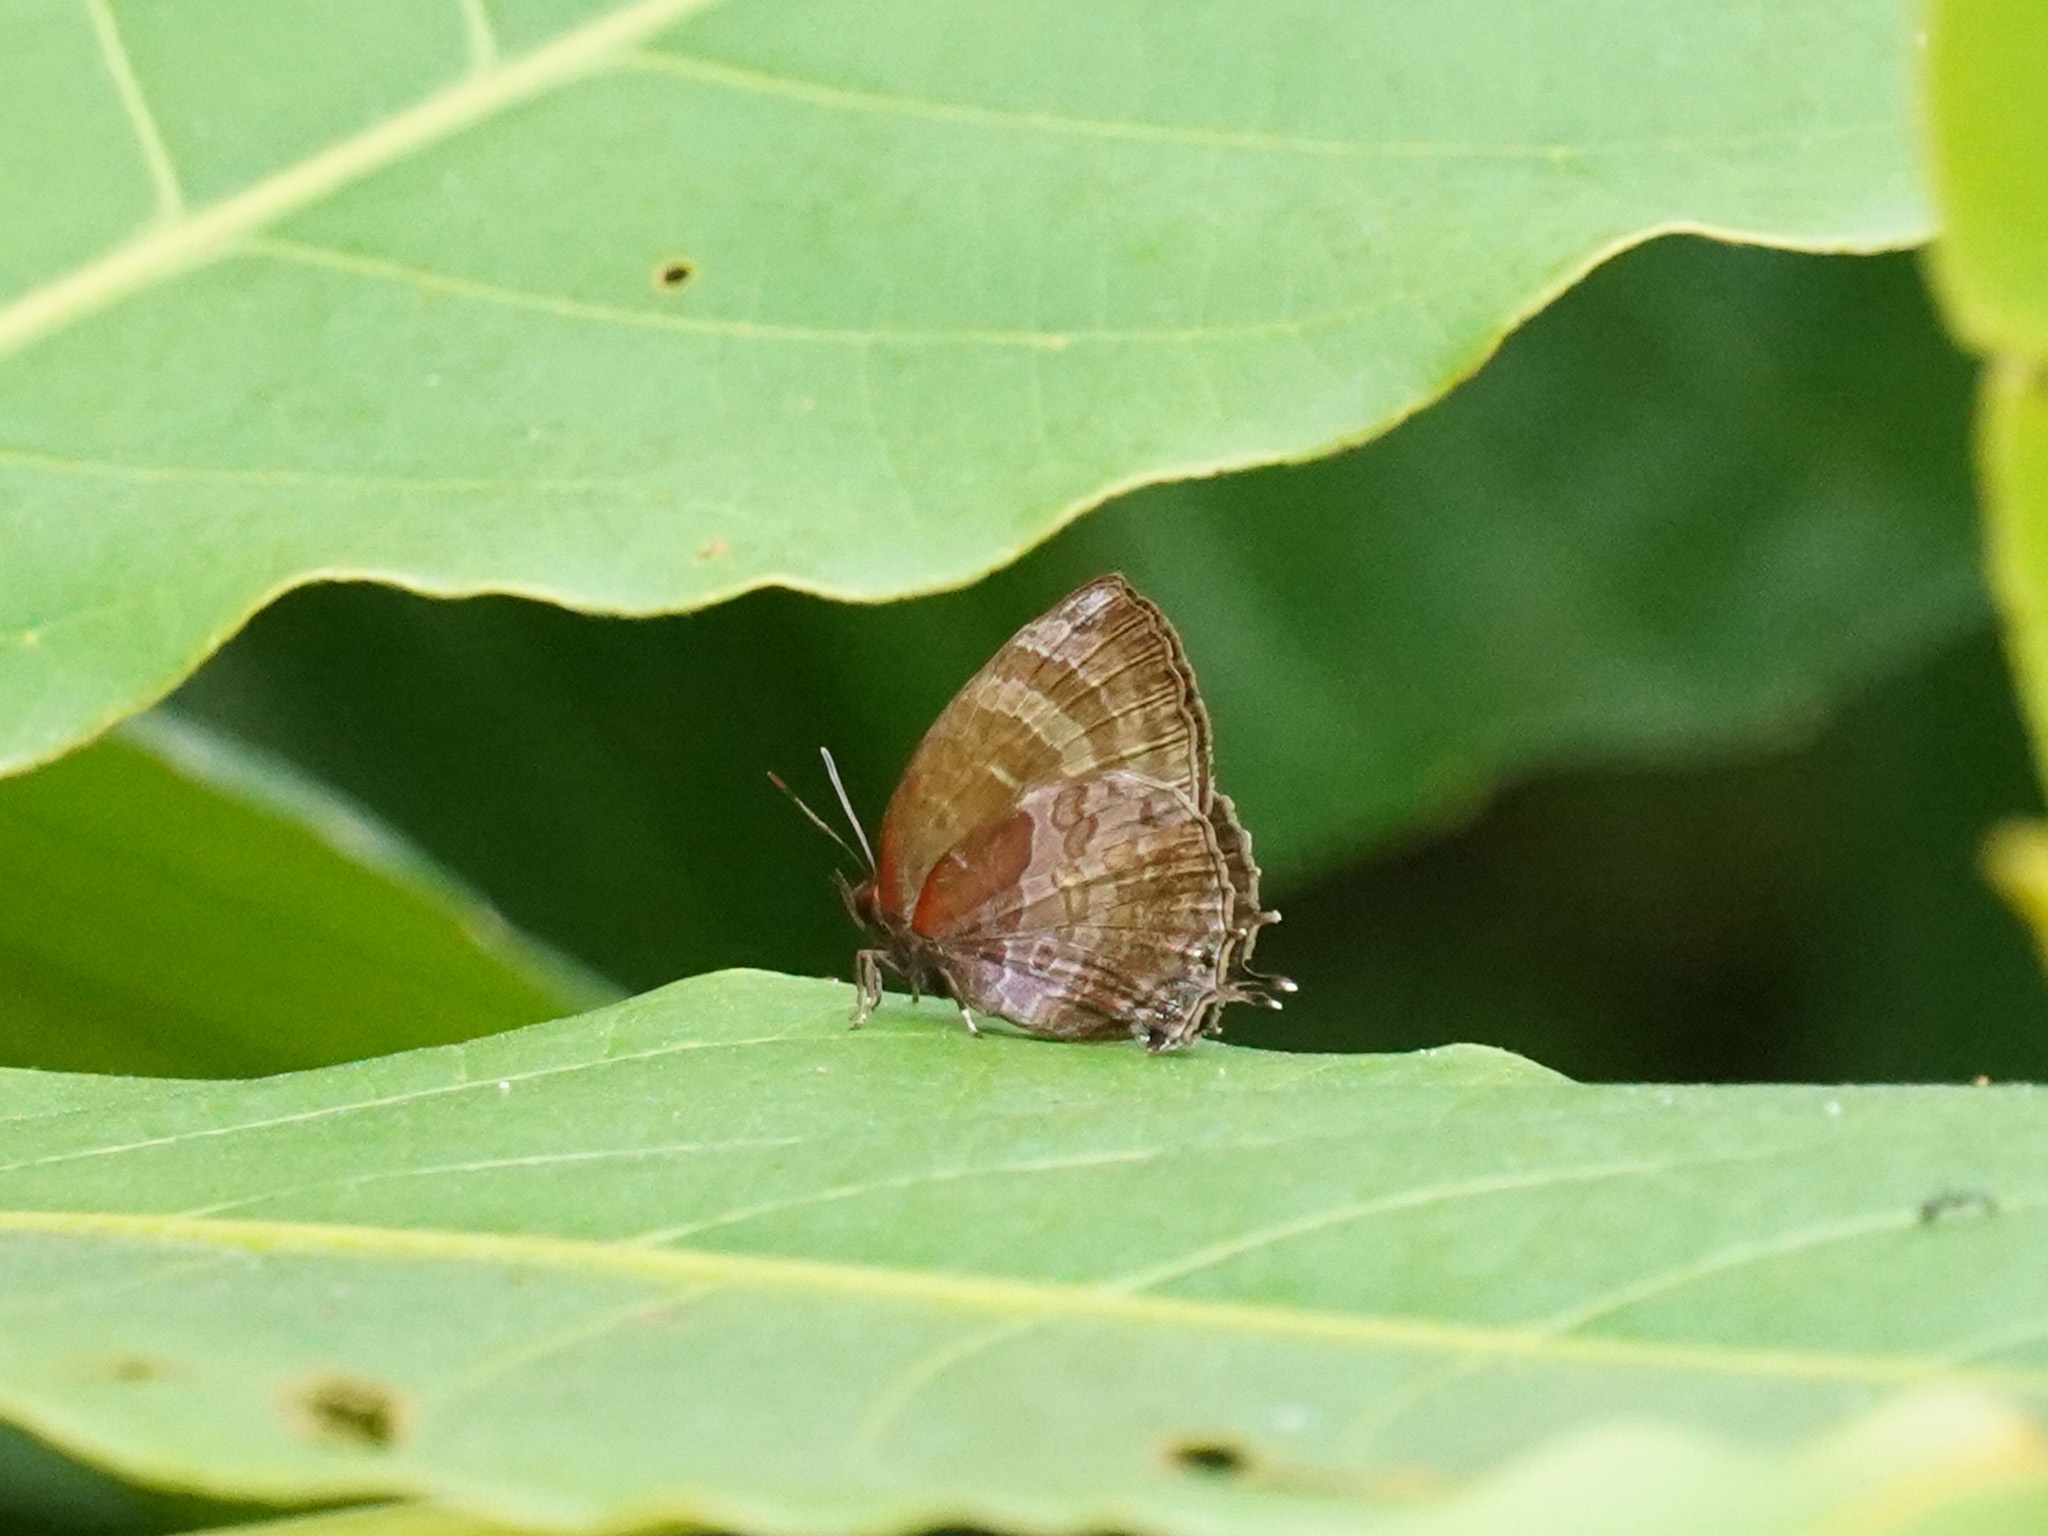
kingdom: Animalia
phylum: Arthropoda
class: Insecta
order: Lepidoptera
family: Lycaenidae
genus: Flos
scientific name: Flos apidanus
